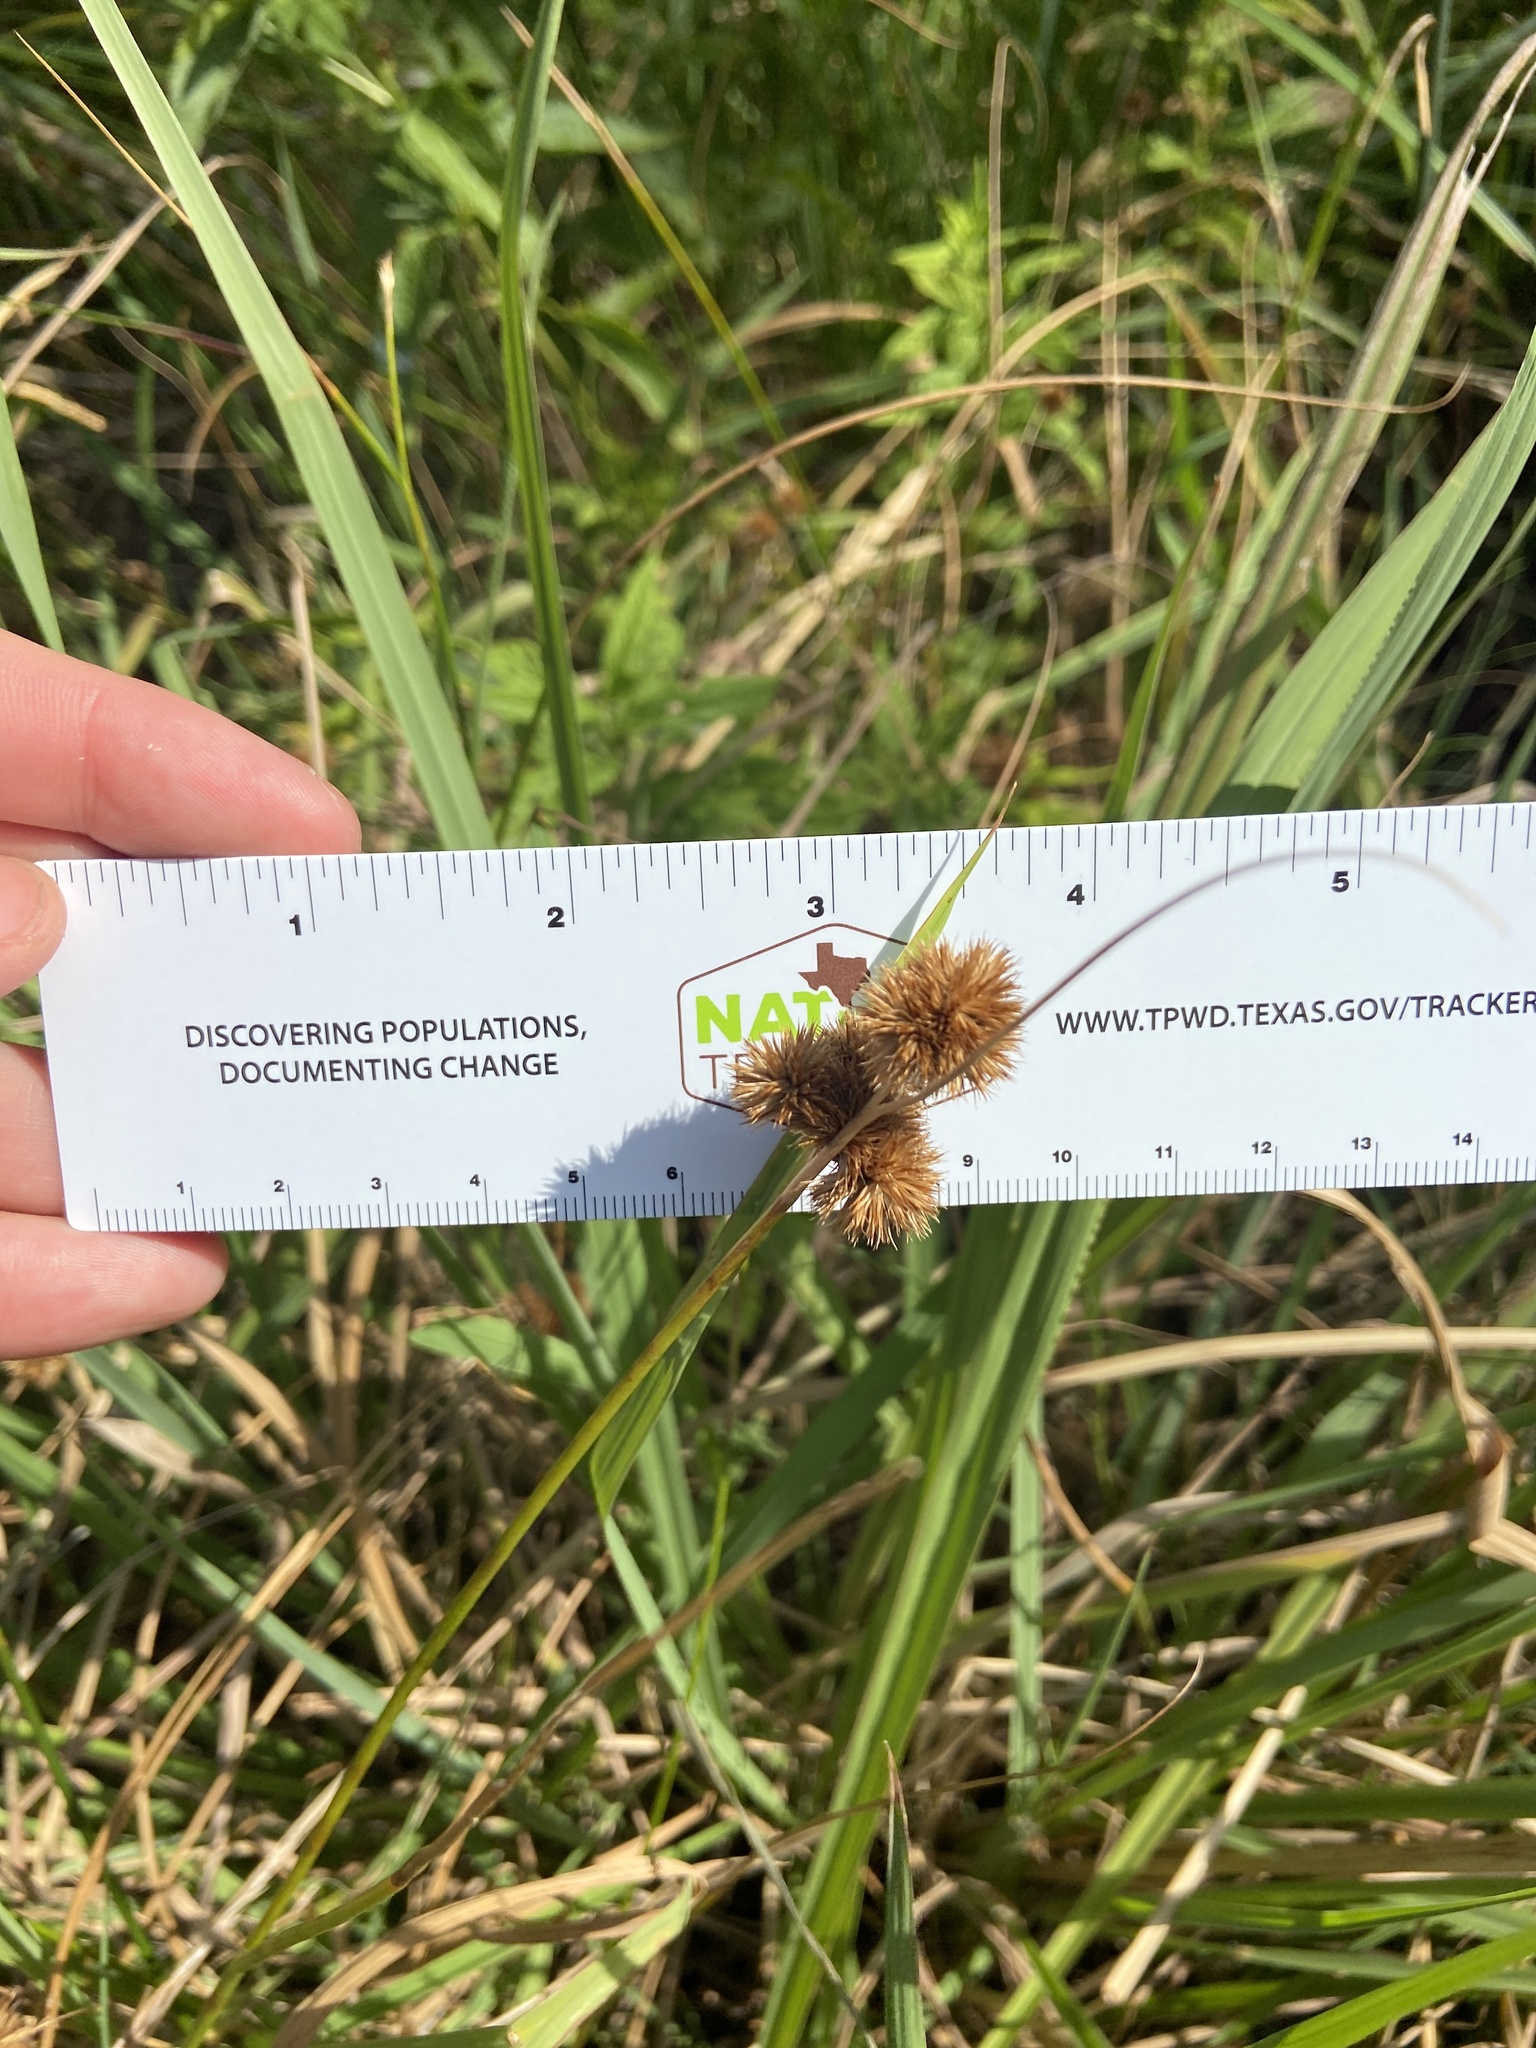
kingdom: Plantae
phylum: Tracheophyta
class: Liliopsida
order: Poales
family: Juncaceae
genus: Juncus
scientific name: Juncus torreyi
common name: Torrey's rush
